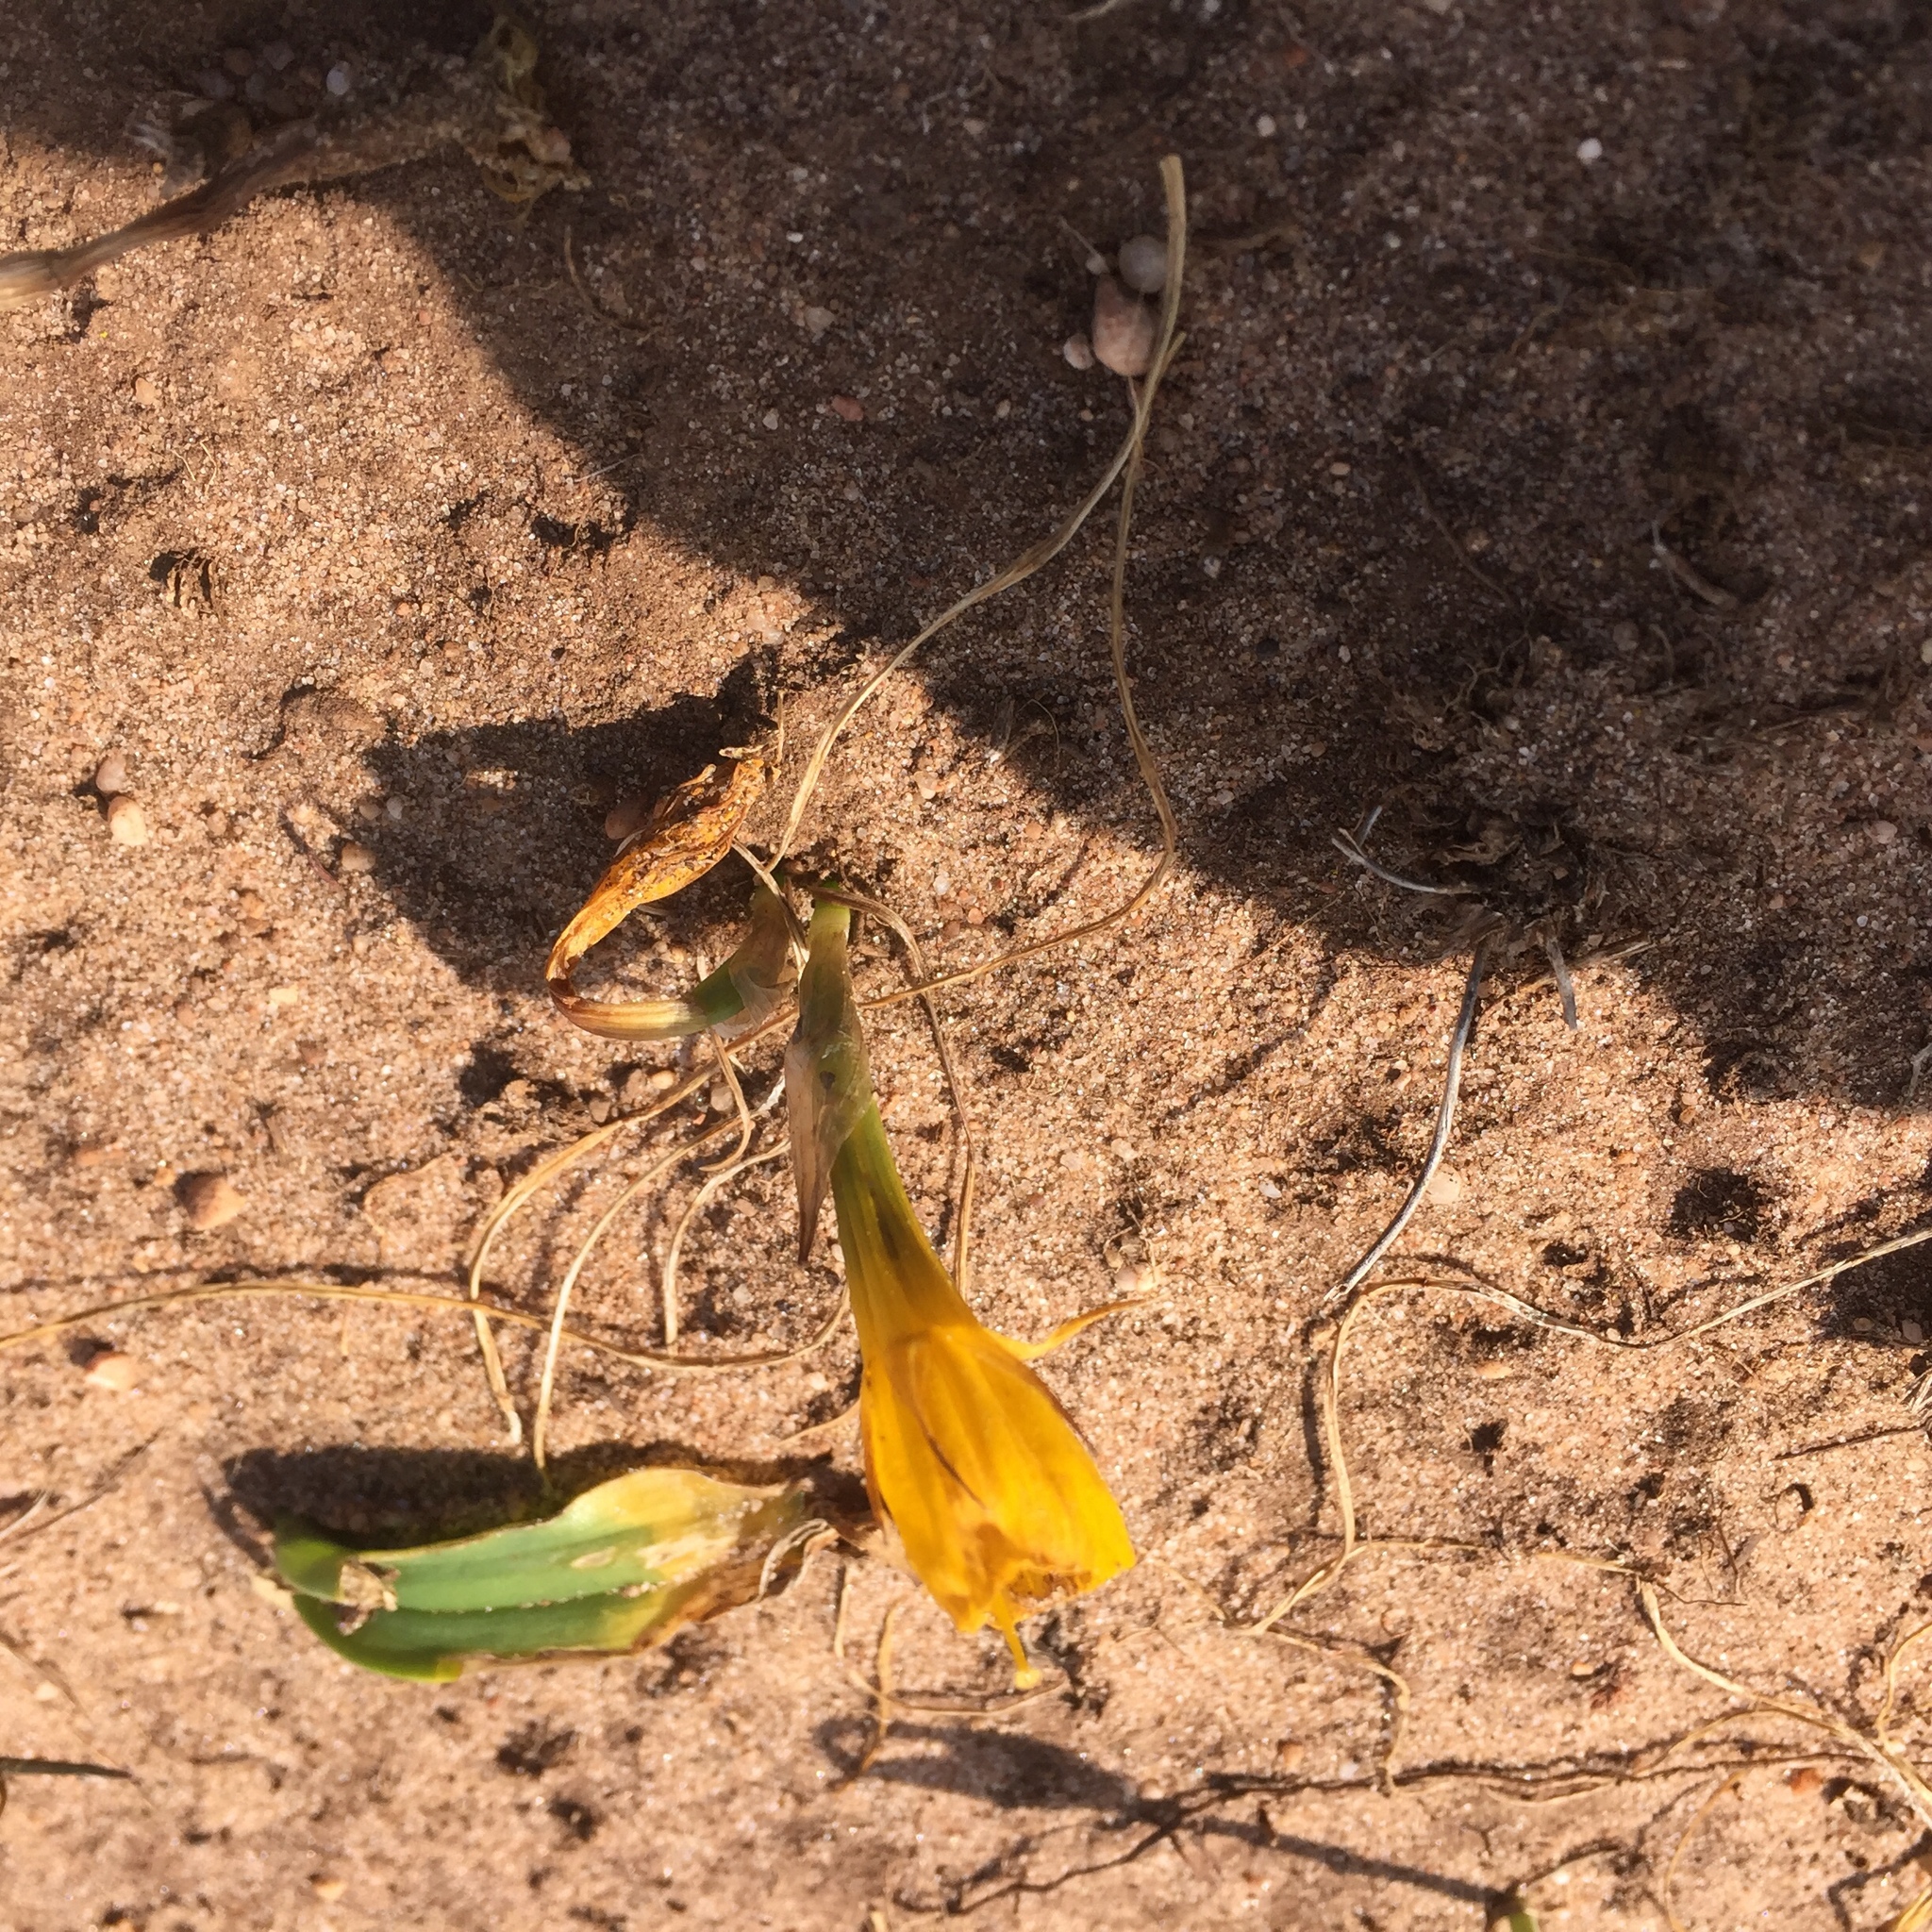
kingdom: Plantae
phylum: Tracheophyta
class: Liliopsida
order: Asparagales
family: Amaryllidaceae
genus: Narcissus
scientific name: Narcissus bulbocodium
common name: Hoop-petticoat daffodil
